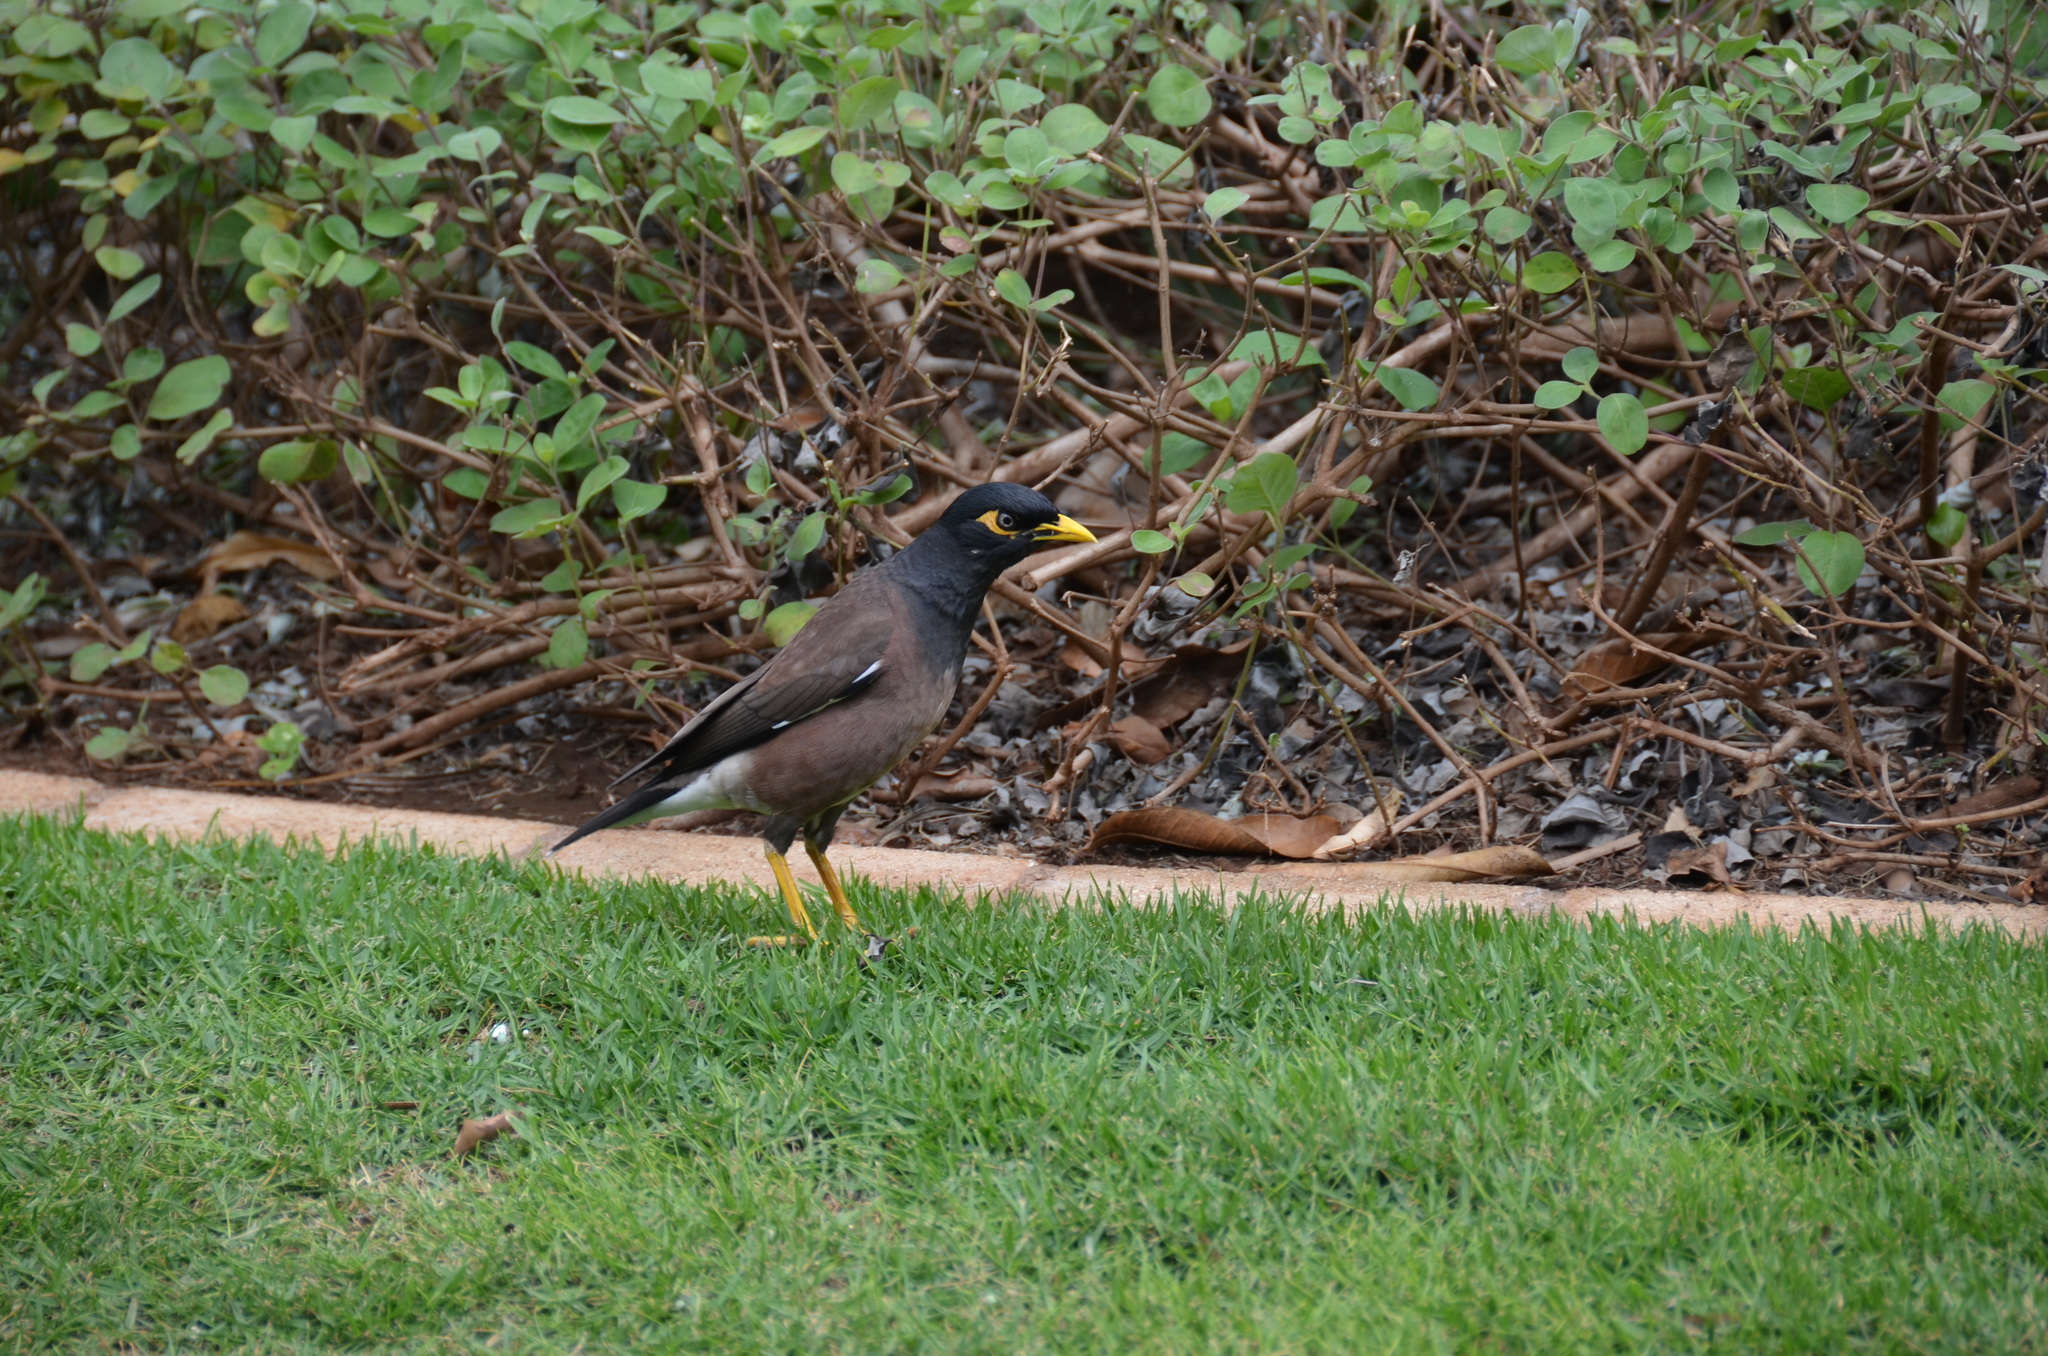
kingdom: Animalia
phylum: Chordata
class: Aves
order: Passeriformes
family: Sturnidae
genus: Acridotheres
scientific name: Acridotheres tristis
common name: Common myna
